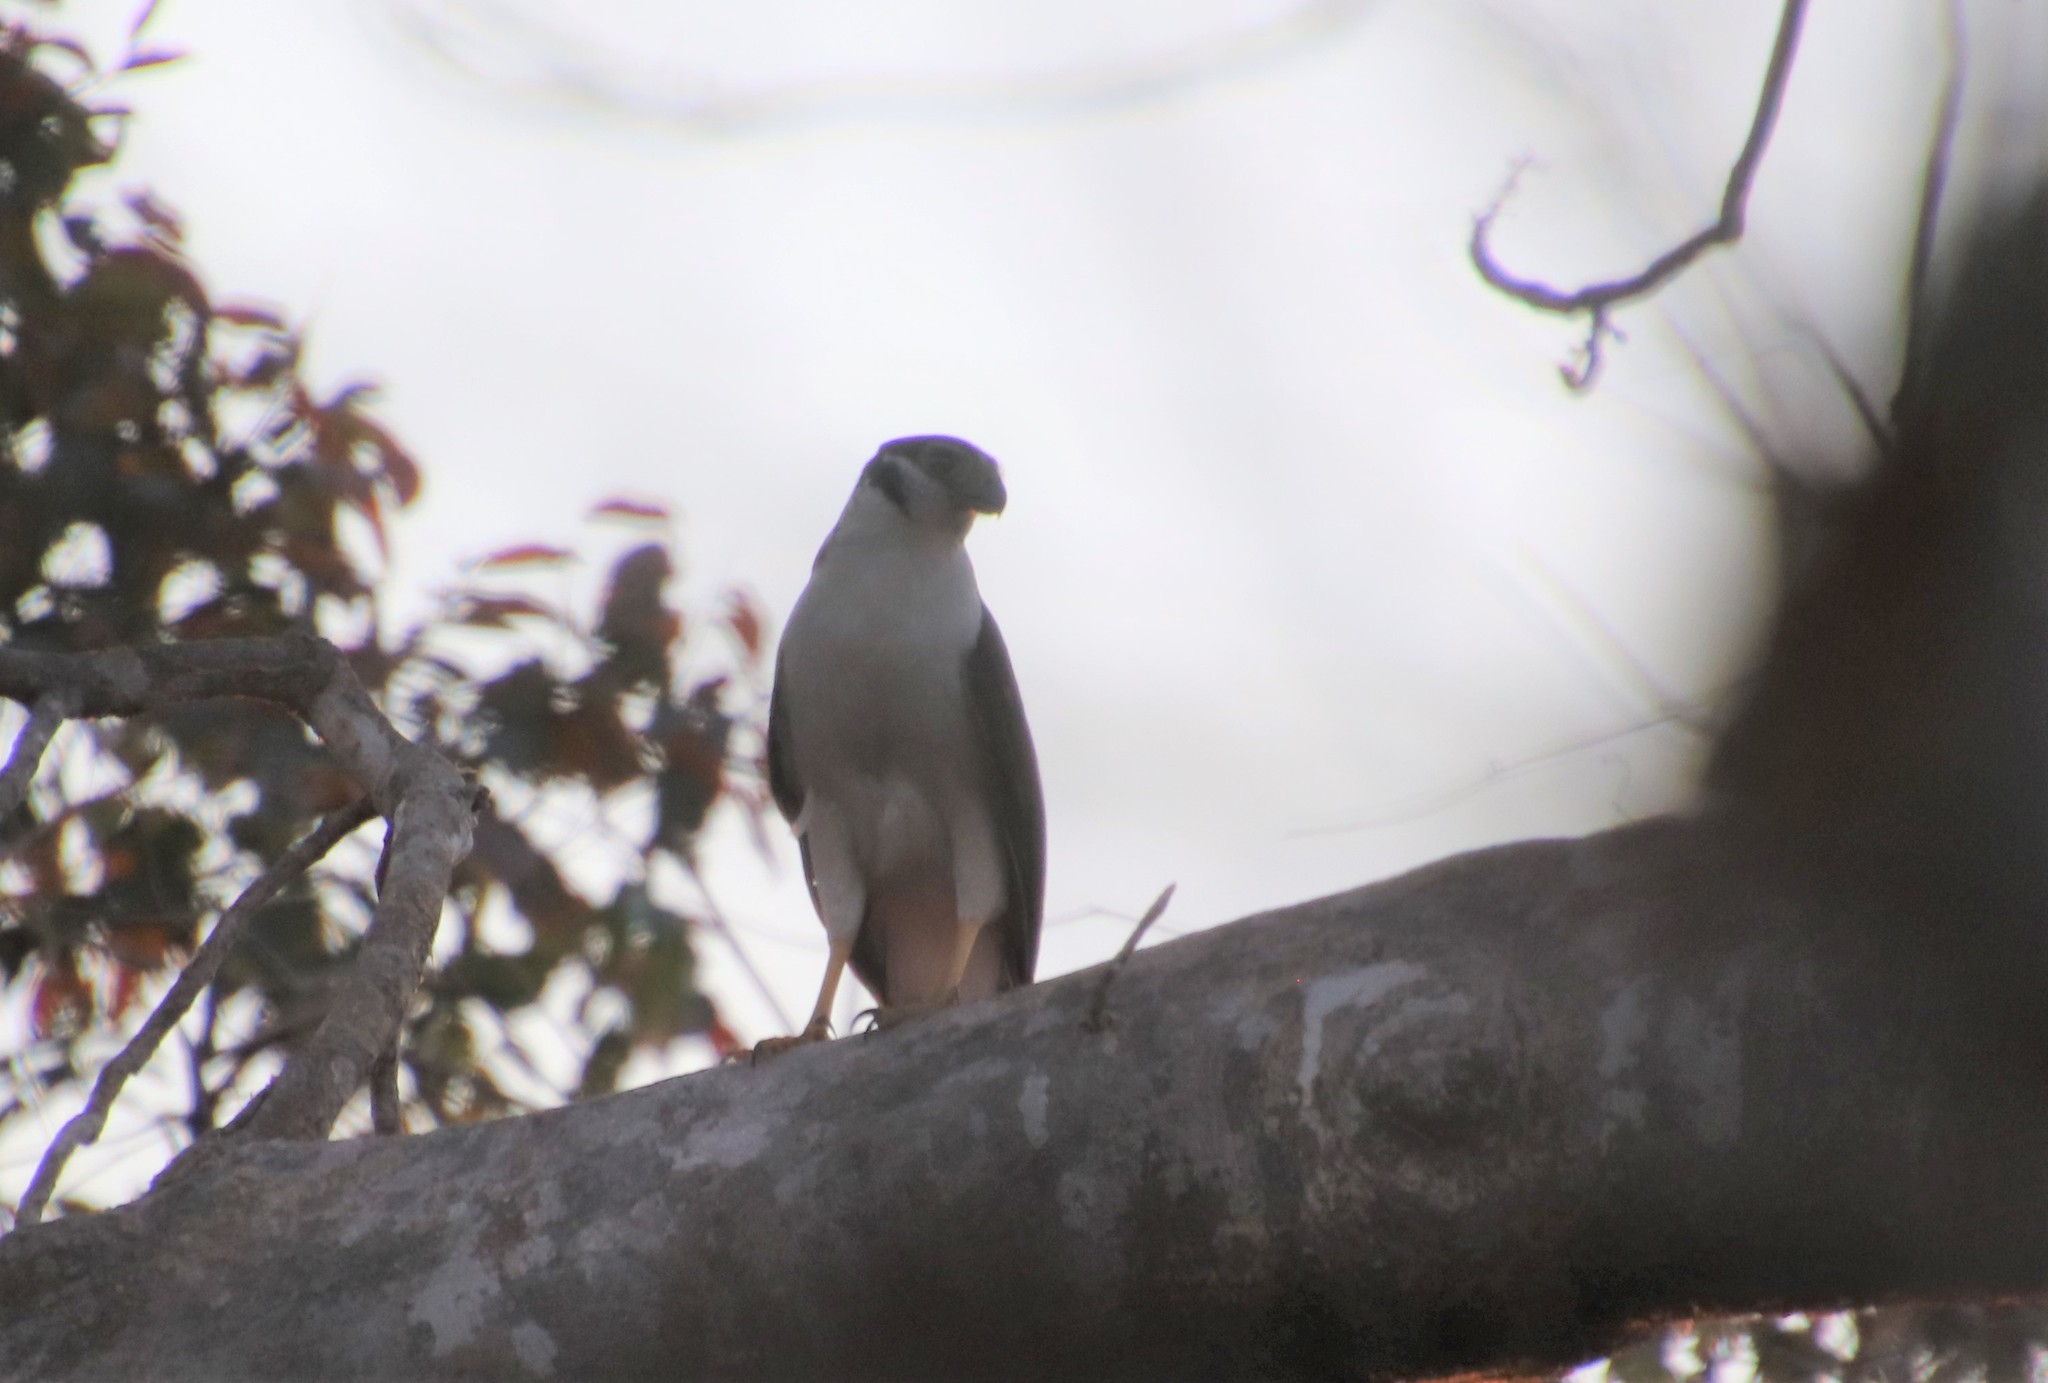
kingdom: Animalia
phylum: Chordata
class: Aves
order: Falconiformes
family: Falconidae
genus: Micrastur
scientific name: Micrastur semitorquatus
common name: Collared forest-falcon
